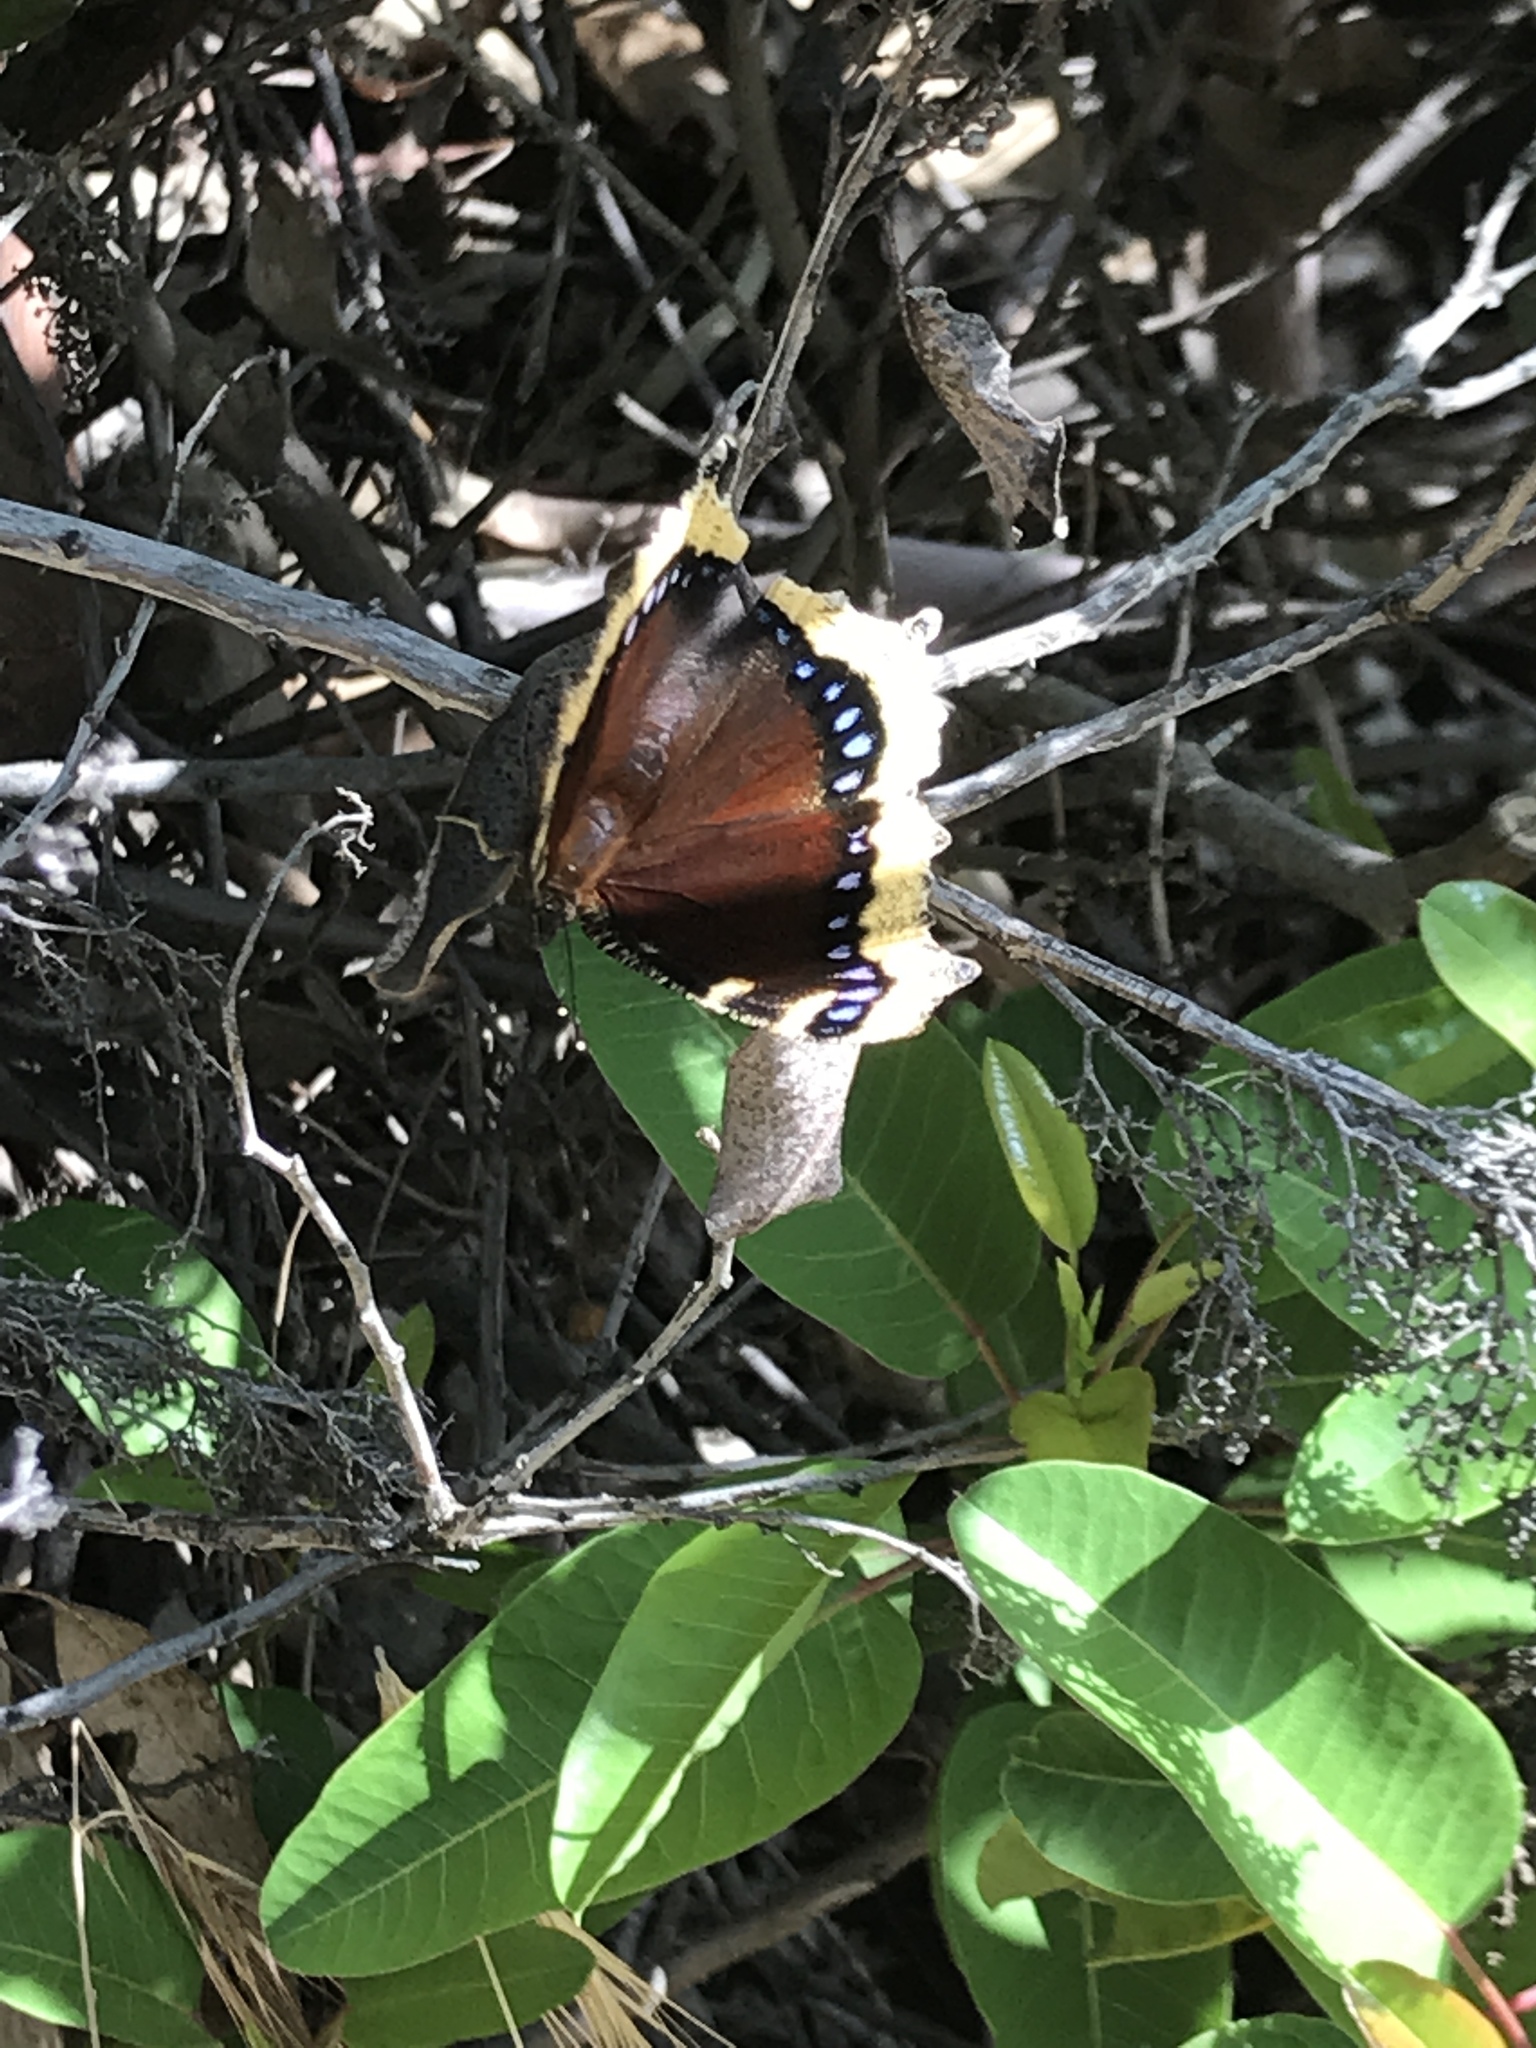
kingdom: Animalia
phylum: Arthropoda
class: Insecta
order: Lepidoptera
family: Nymphalidae
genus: Nymphalis
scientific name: Nymphalis antiopa
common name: Camberwell beauty
